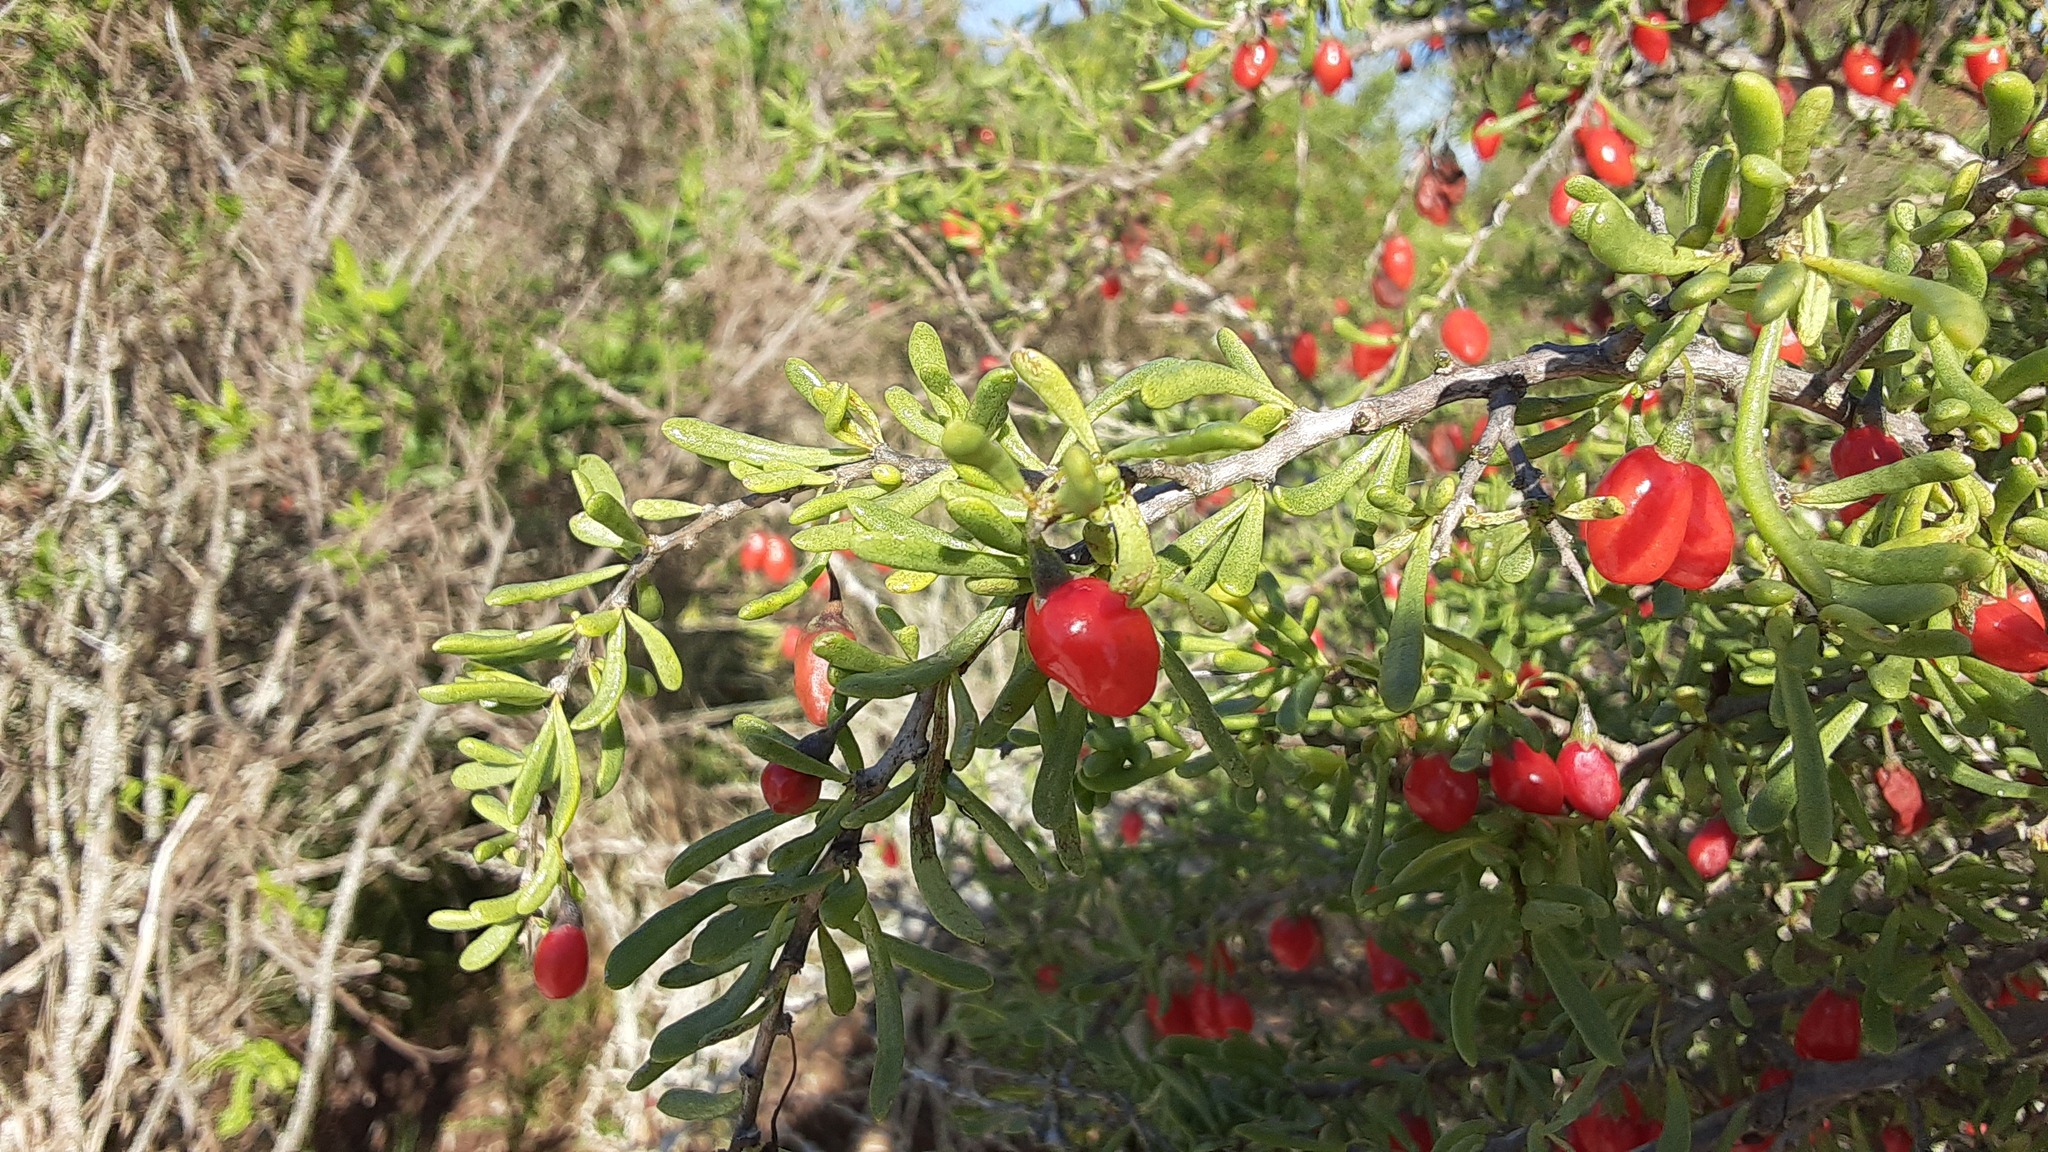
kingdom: Plantae
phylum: Tracheophyta
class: Magnoliopsida
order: Solanales
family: Solanaceae
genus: Lycium
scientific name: Lycium carolinianum
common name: Christmasberry
